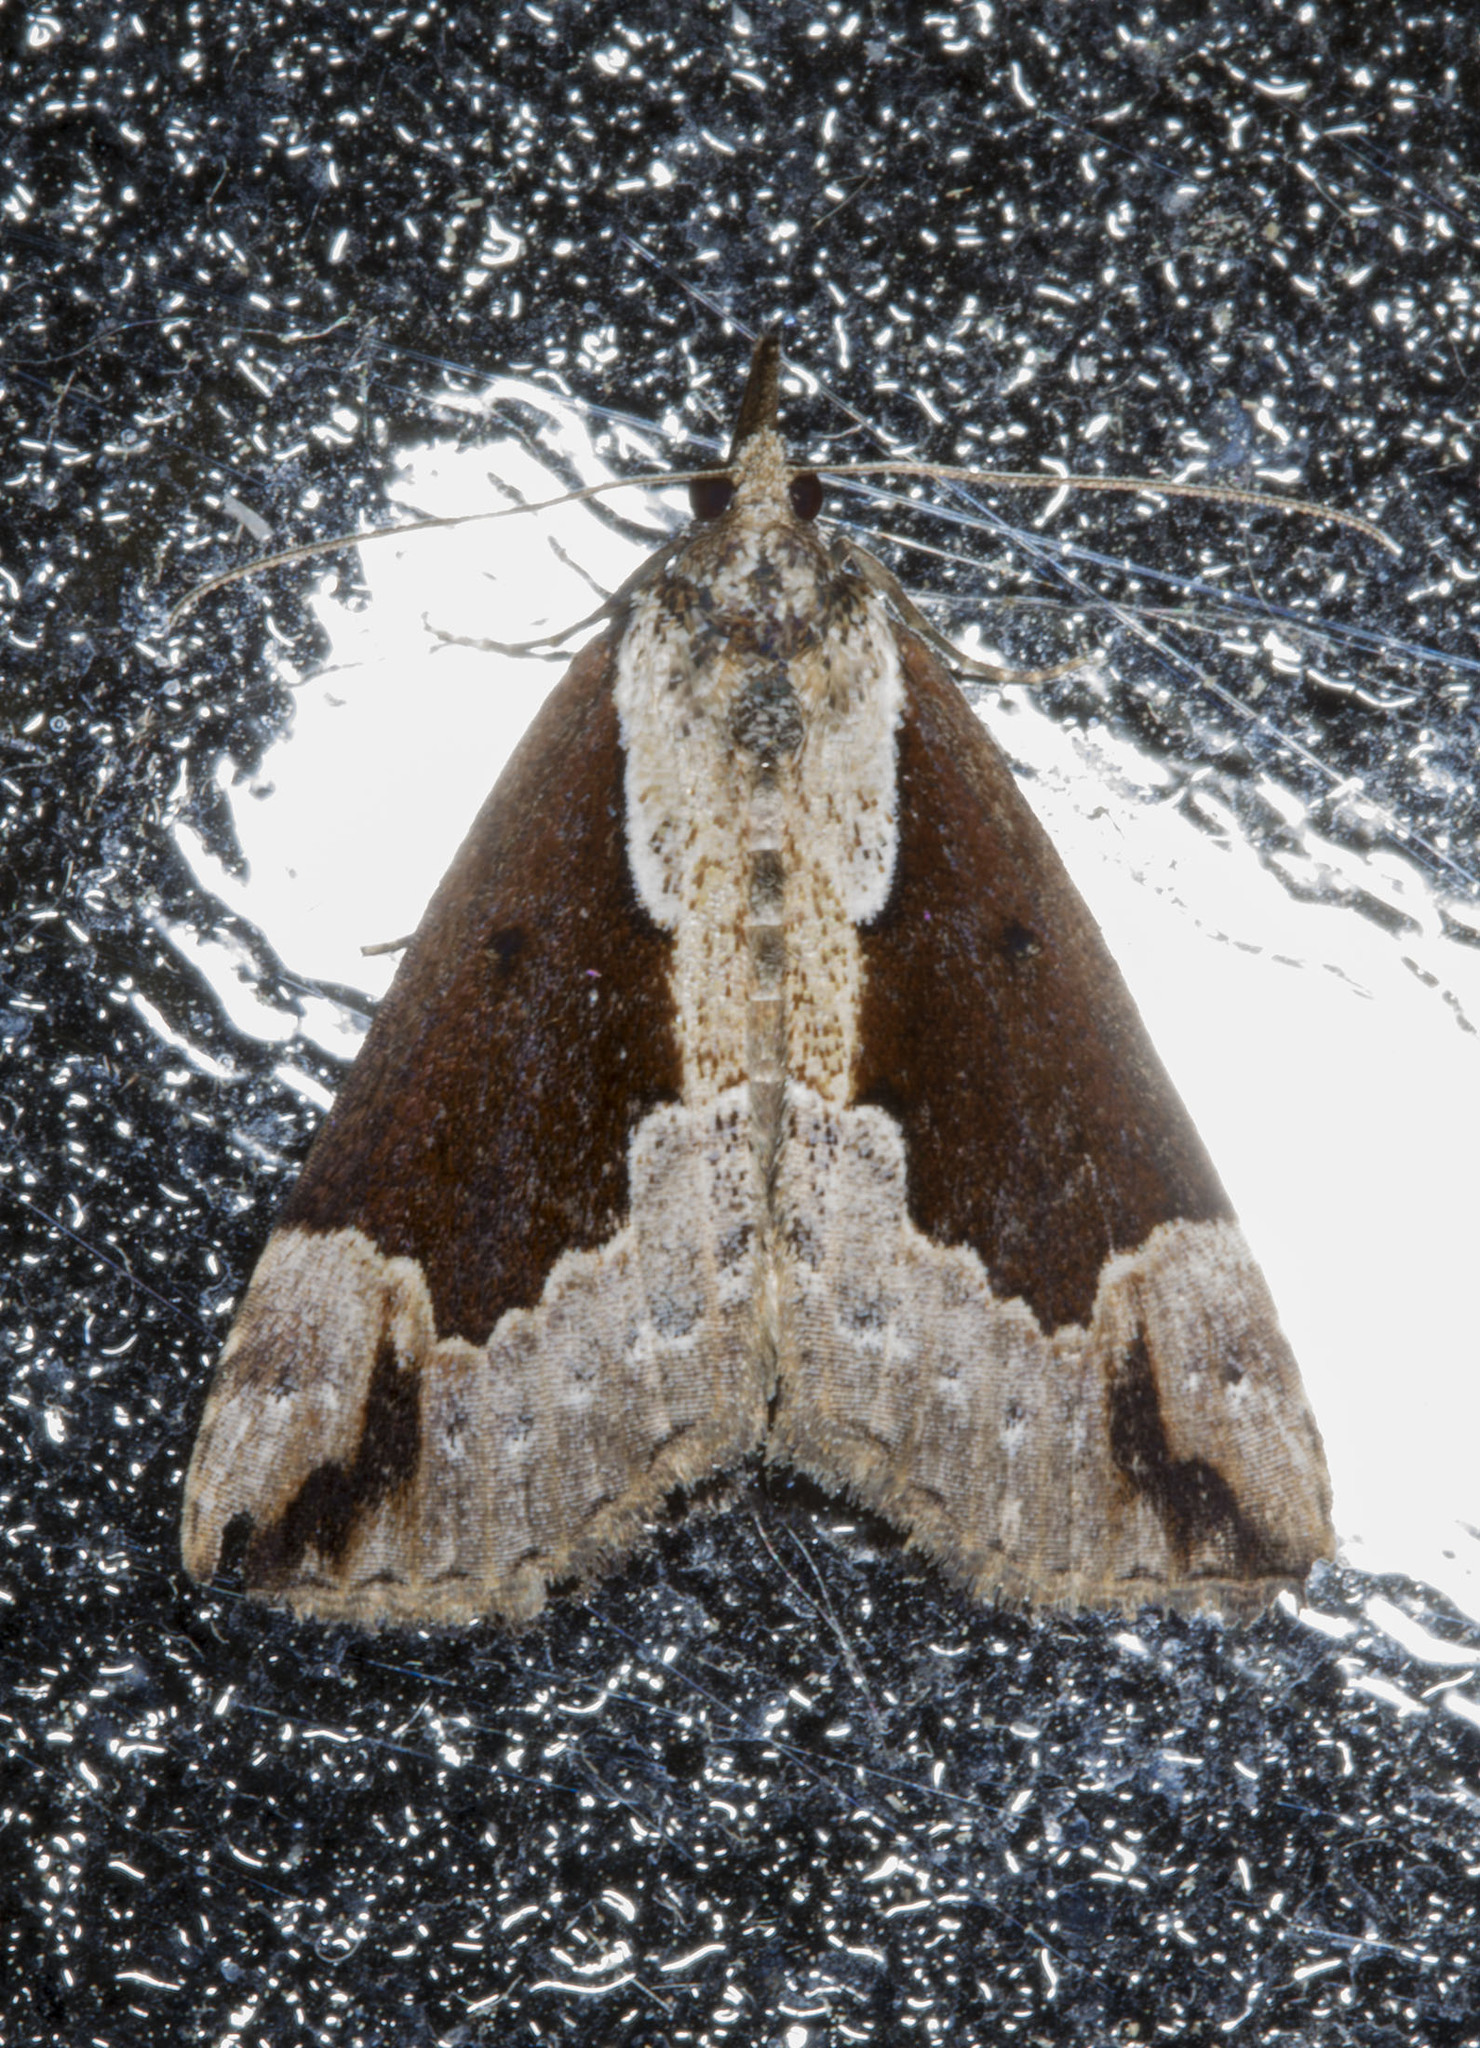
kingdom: Animalia
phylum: Arthropoda
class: Insecta
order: Lepidoptera
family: Erebidae
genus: Hypena
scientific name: Hypena baltimoralis
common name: Baltimore snout
